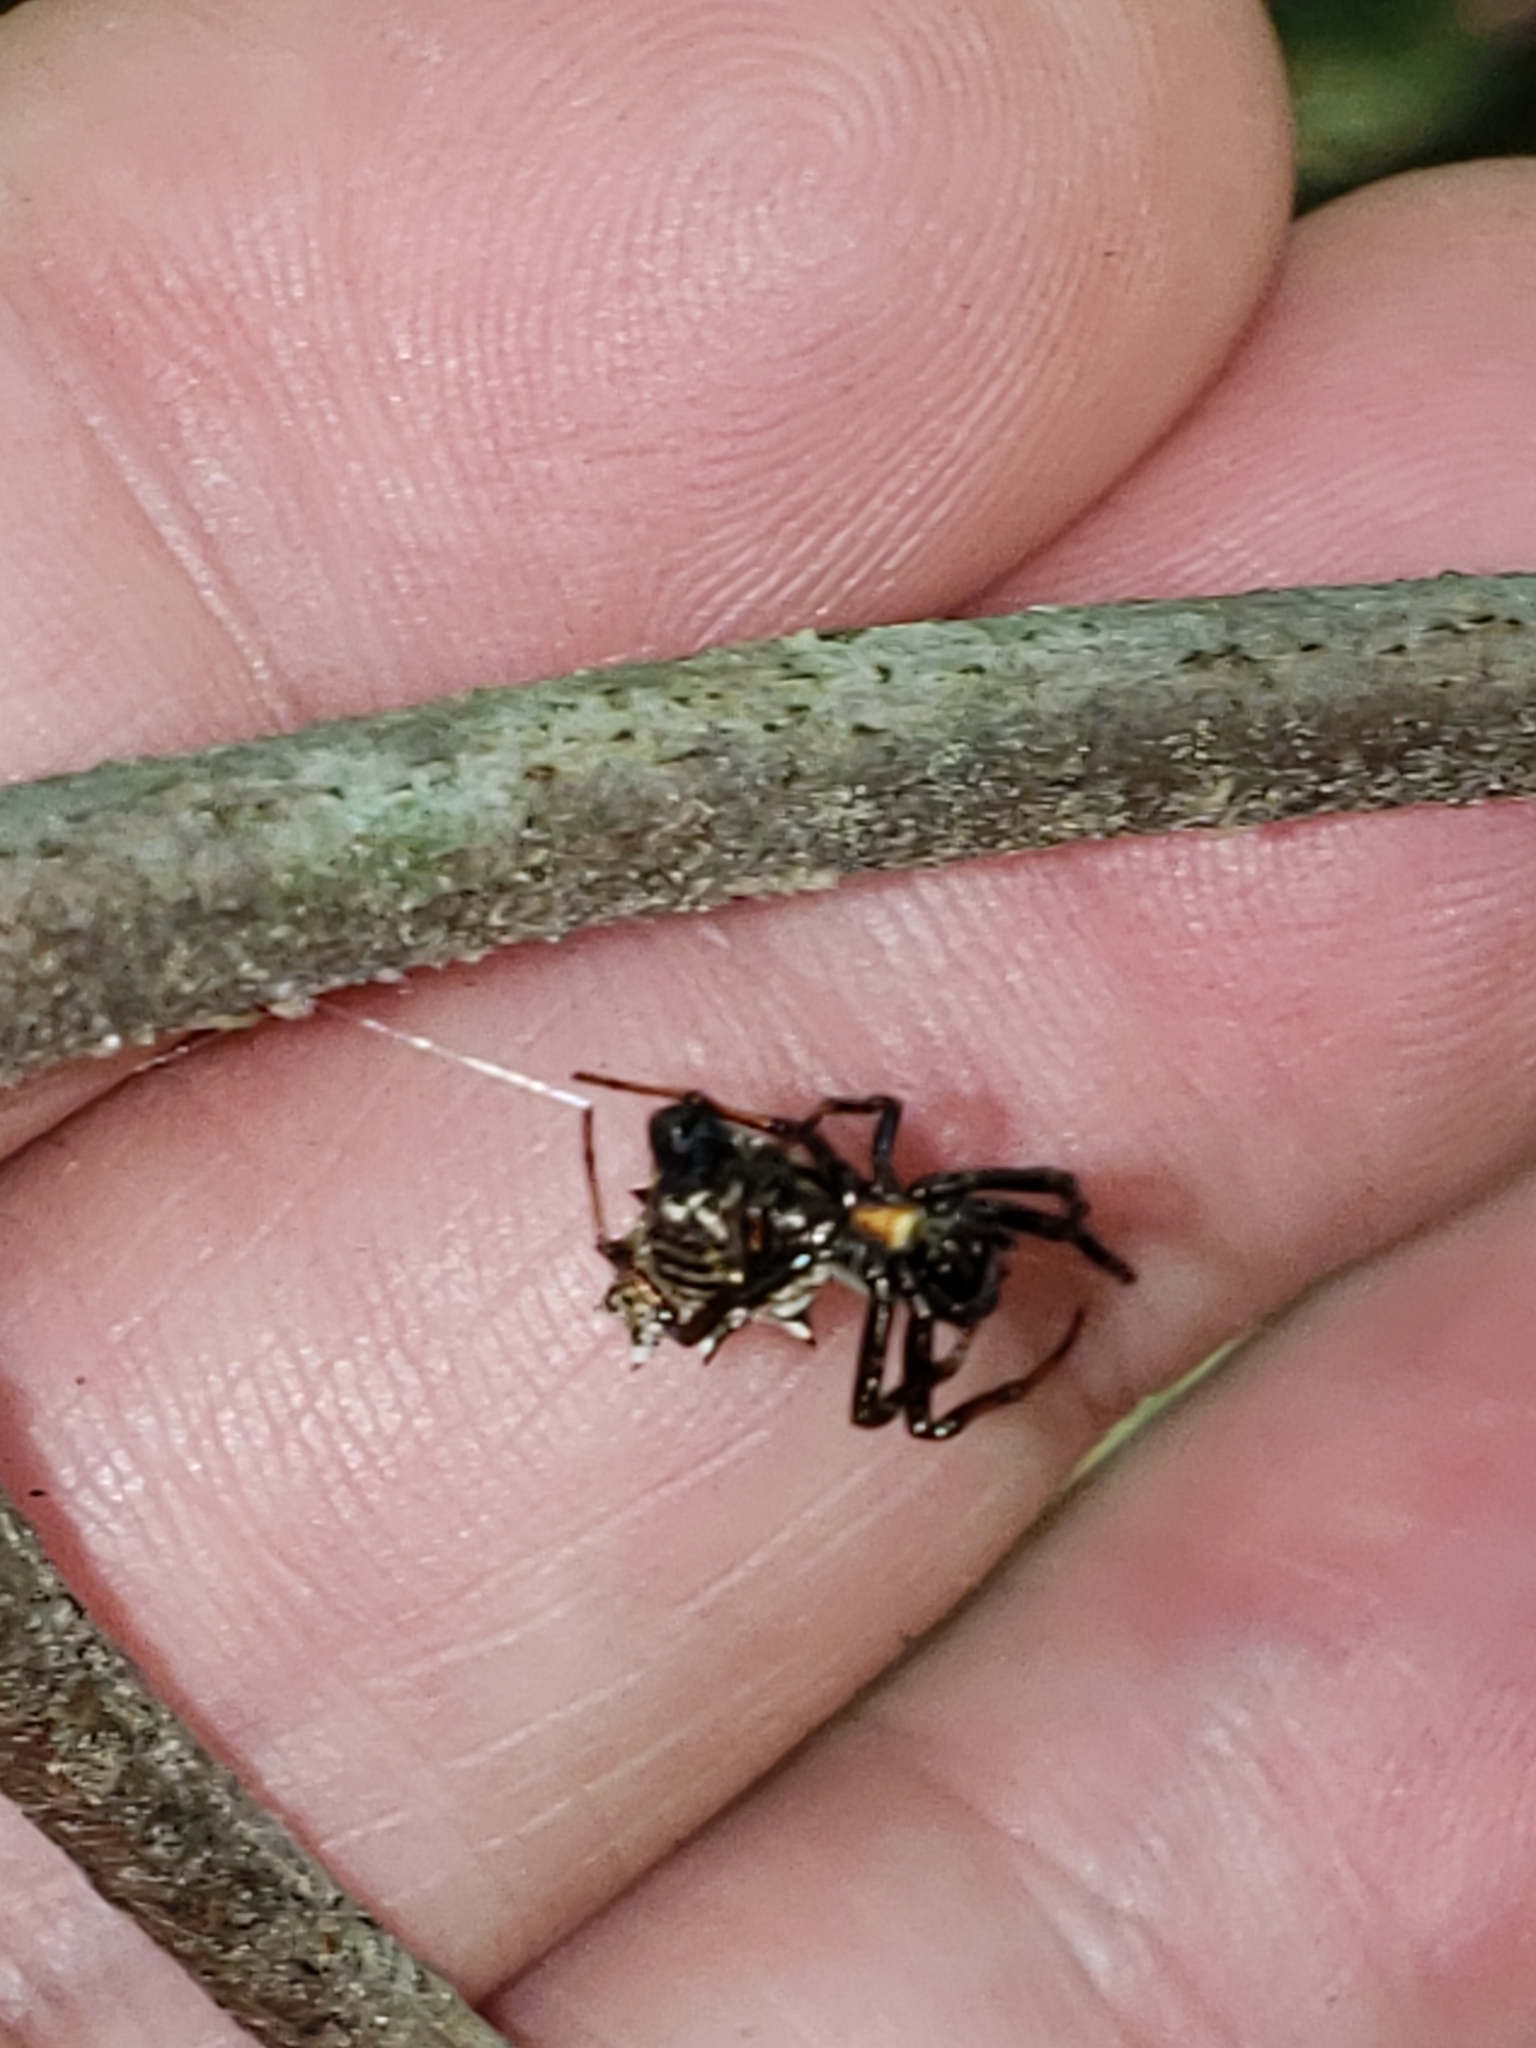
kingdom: Animalia
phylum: Arthropoda
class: Arachnida
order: Araneae
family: Araneidae
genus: Micrathena
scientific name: Micrathena gracilis
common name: Orb weavers
